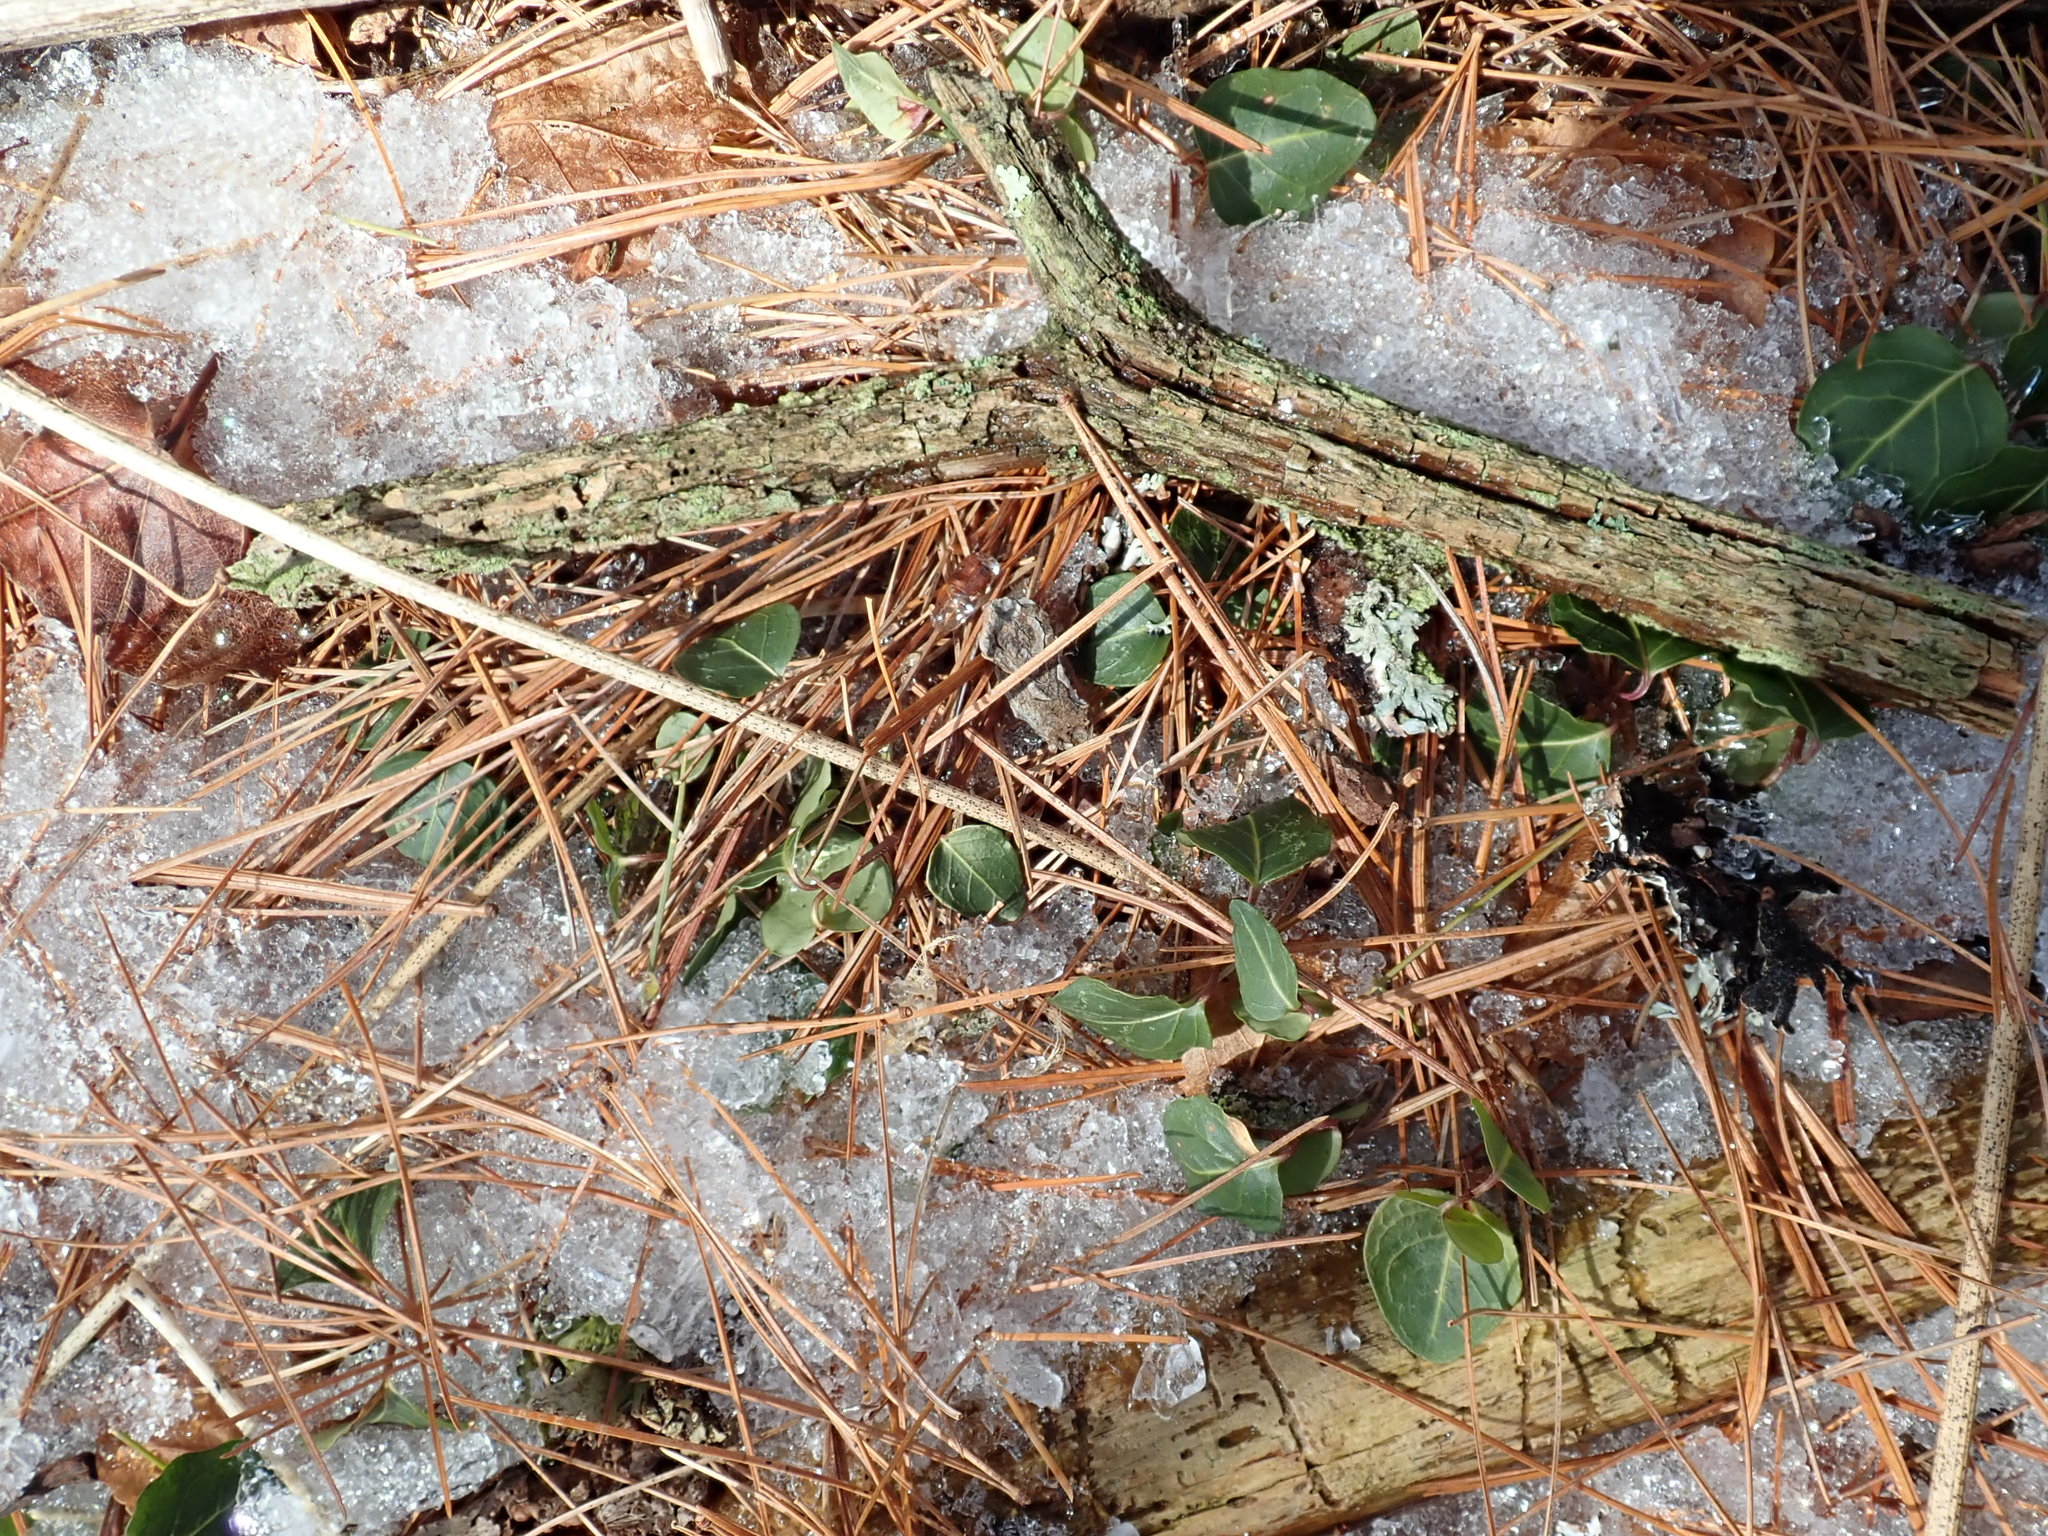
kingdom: Plantae
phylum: Tracheophyta
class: Magnoliopsida
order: Gentianales
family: Rubiaceae
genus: Mitchella
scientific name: Mitchella repens
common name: Partridge-berry
